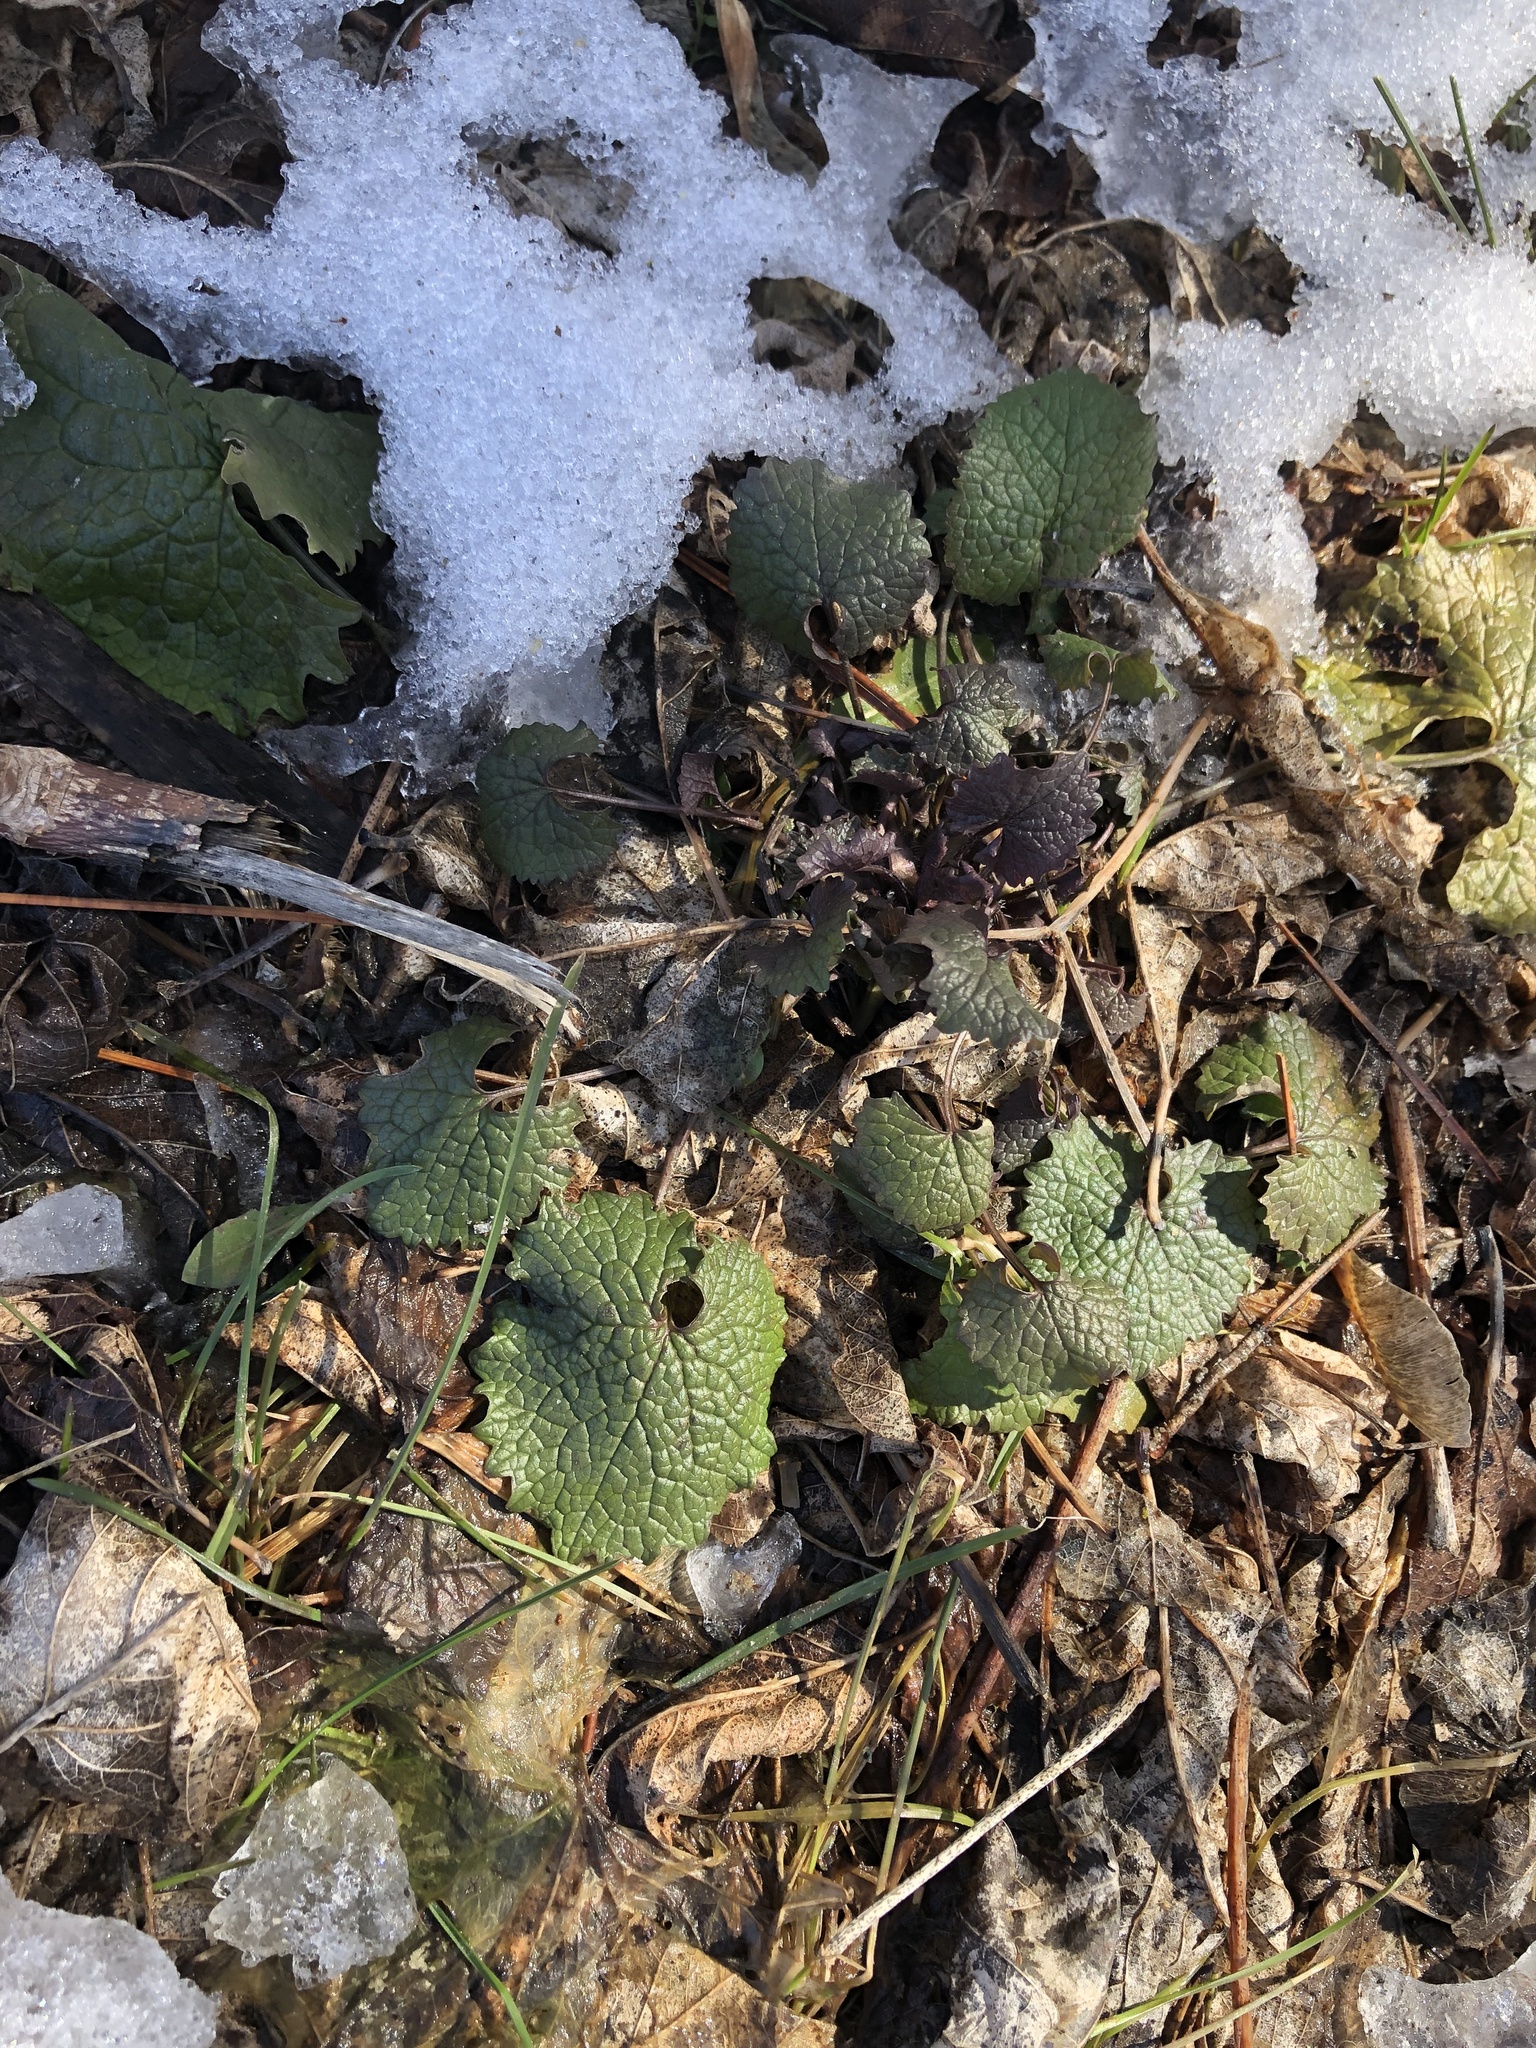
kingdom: Plantae
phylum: Tracheophyta
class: Magnoliopsida
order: Brassicales
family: Brassicaceae
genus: Alliaria
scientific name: Alliaria petiolata
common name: Garlic mustard
